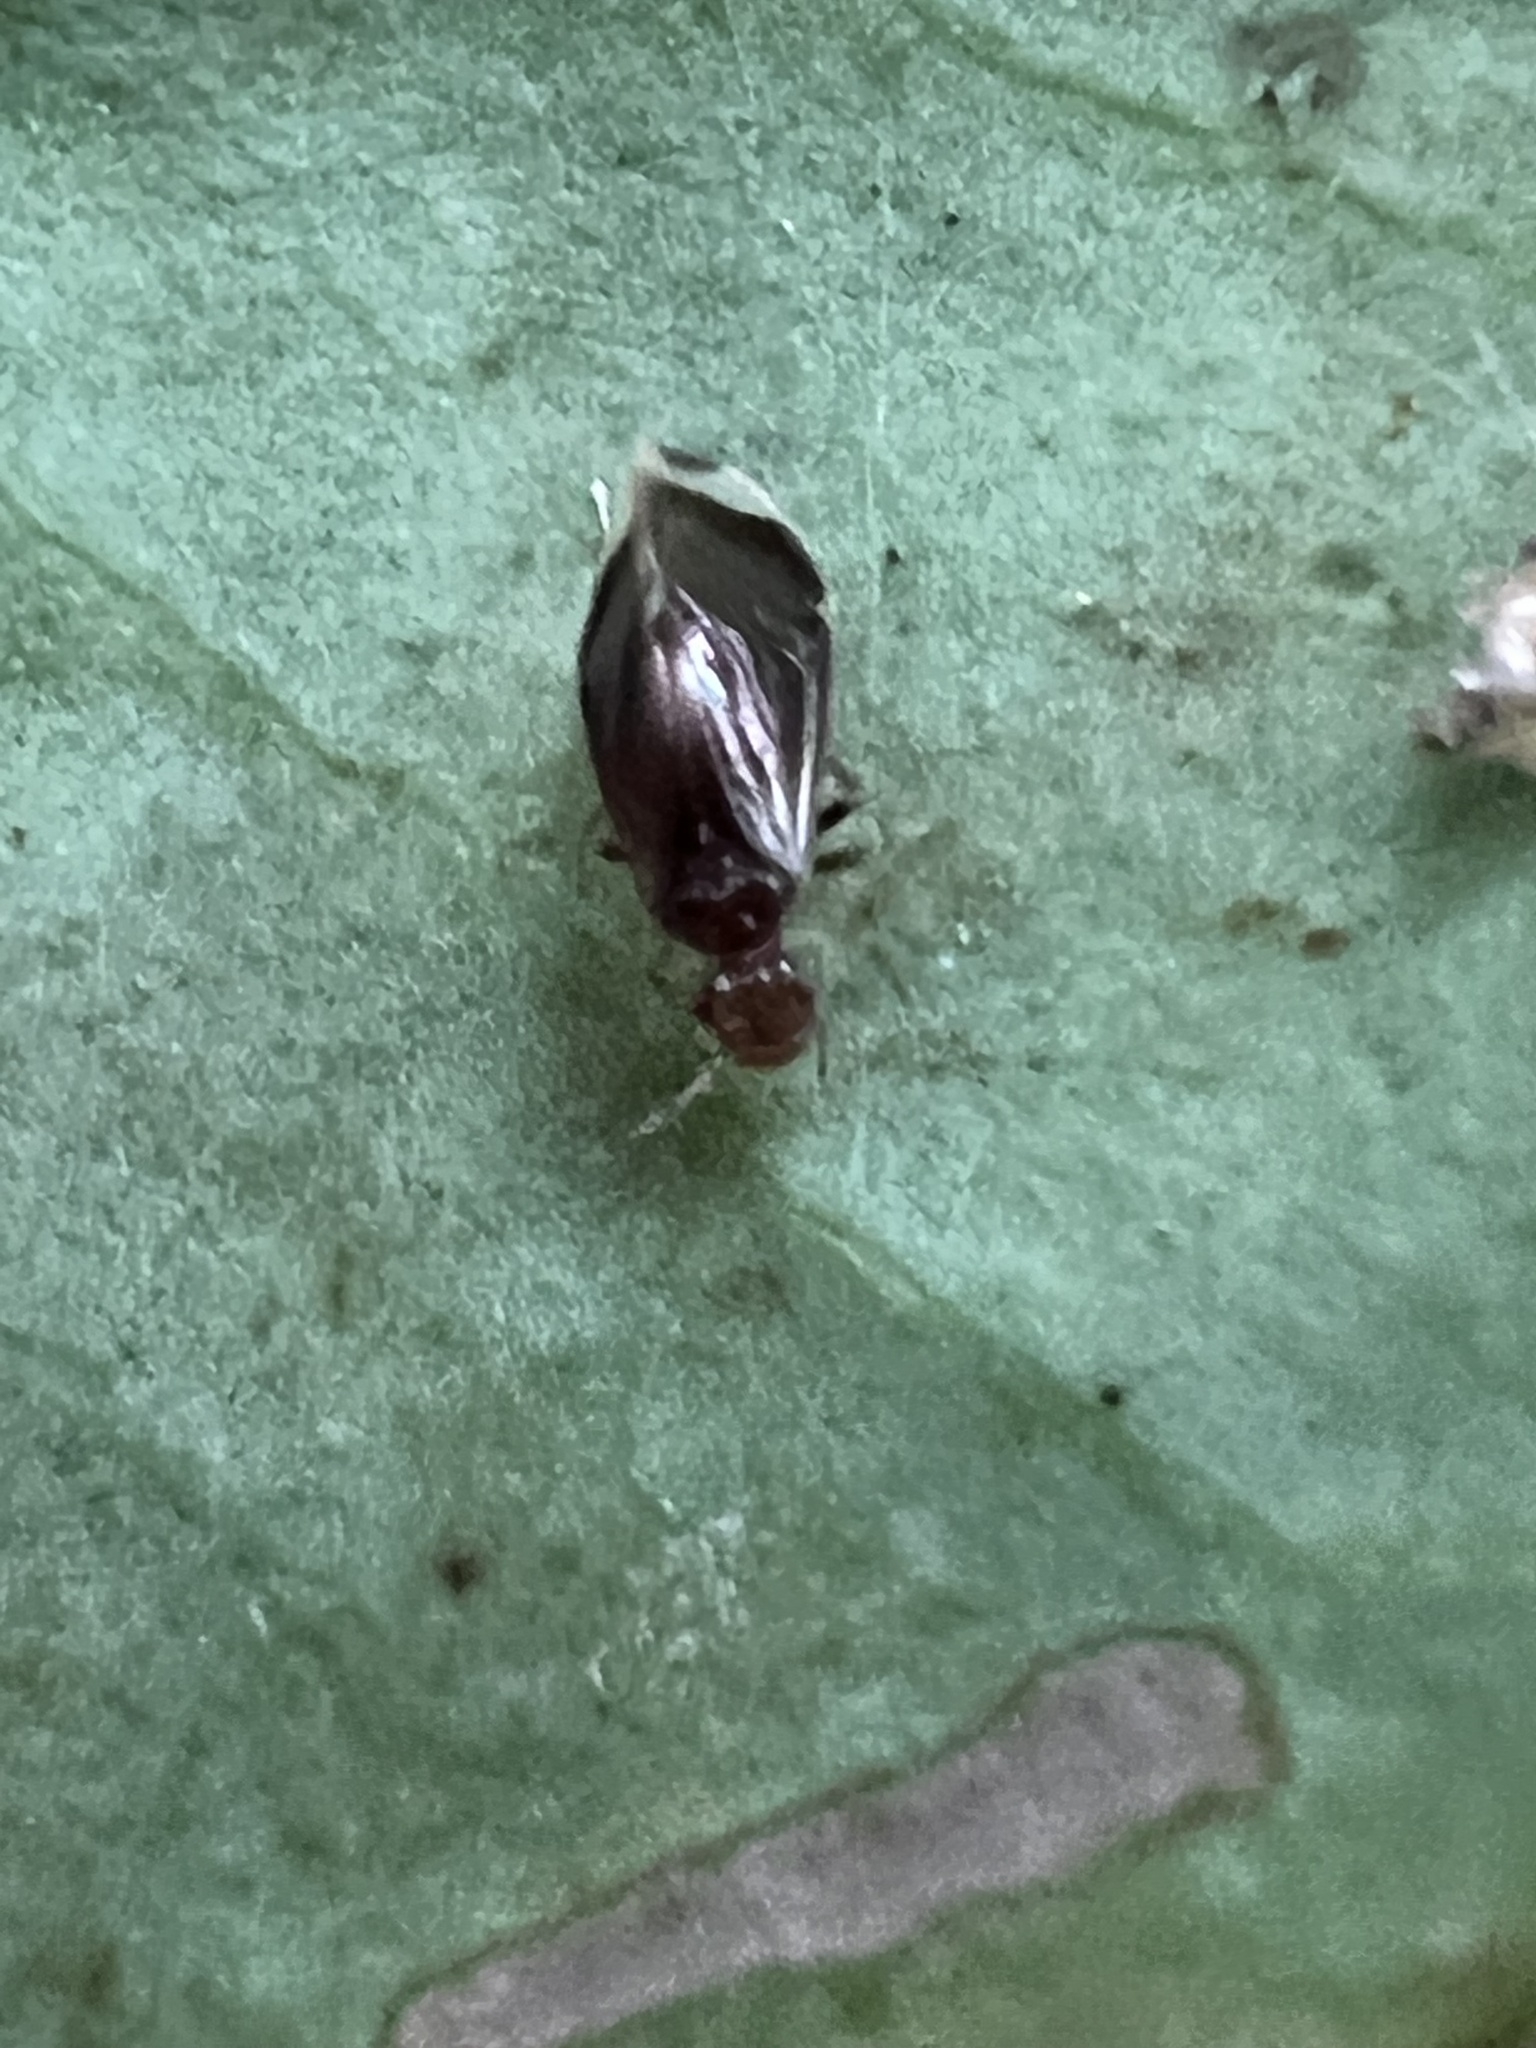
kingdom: Animalia
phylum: Arthropoda
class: Insecta
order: Psocodea
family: Amphipsocidae
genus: Polypsocus
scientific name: Polypsocus corruptus
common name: Corrupt barklouse
